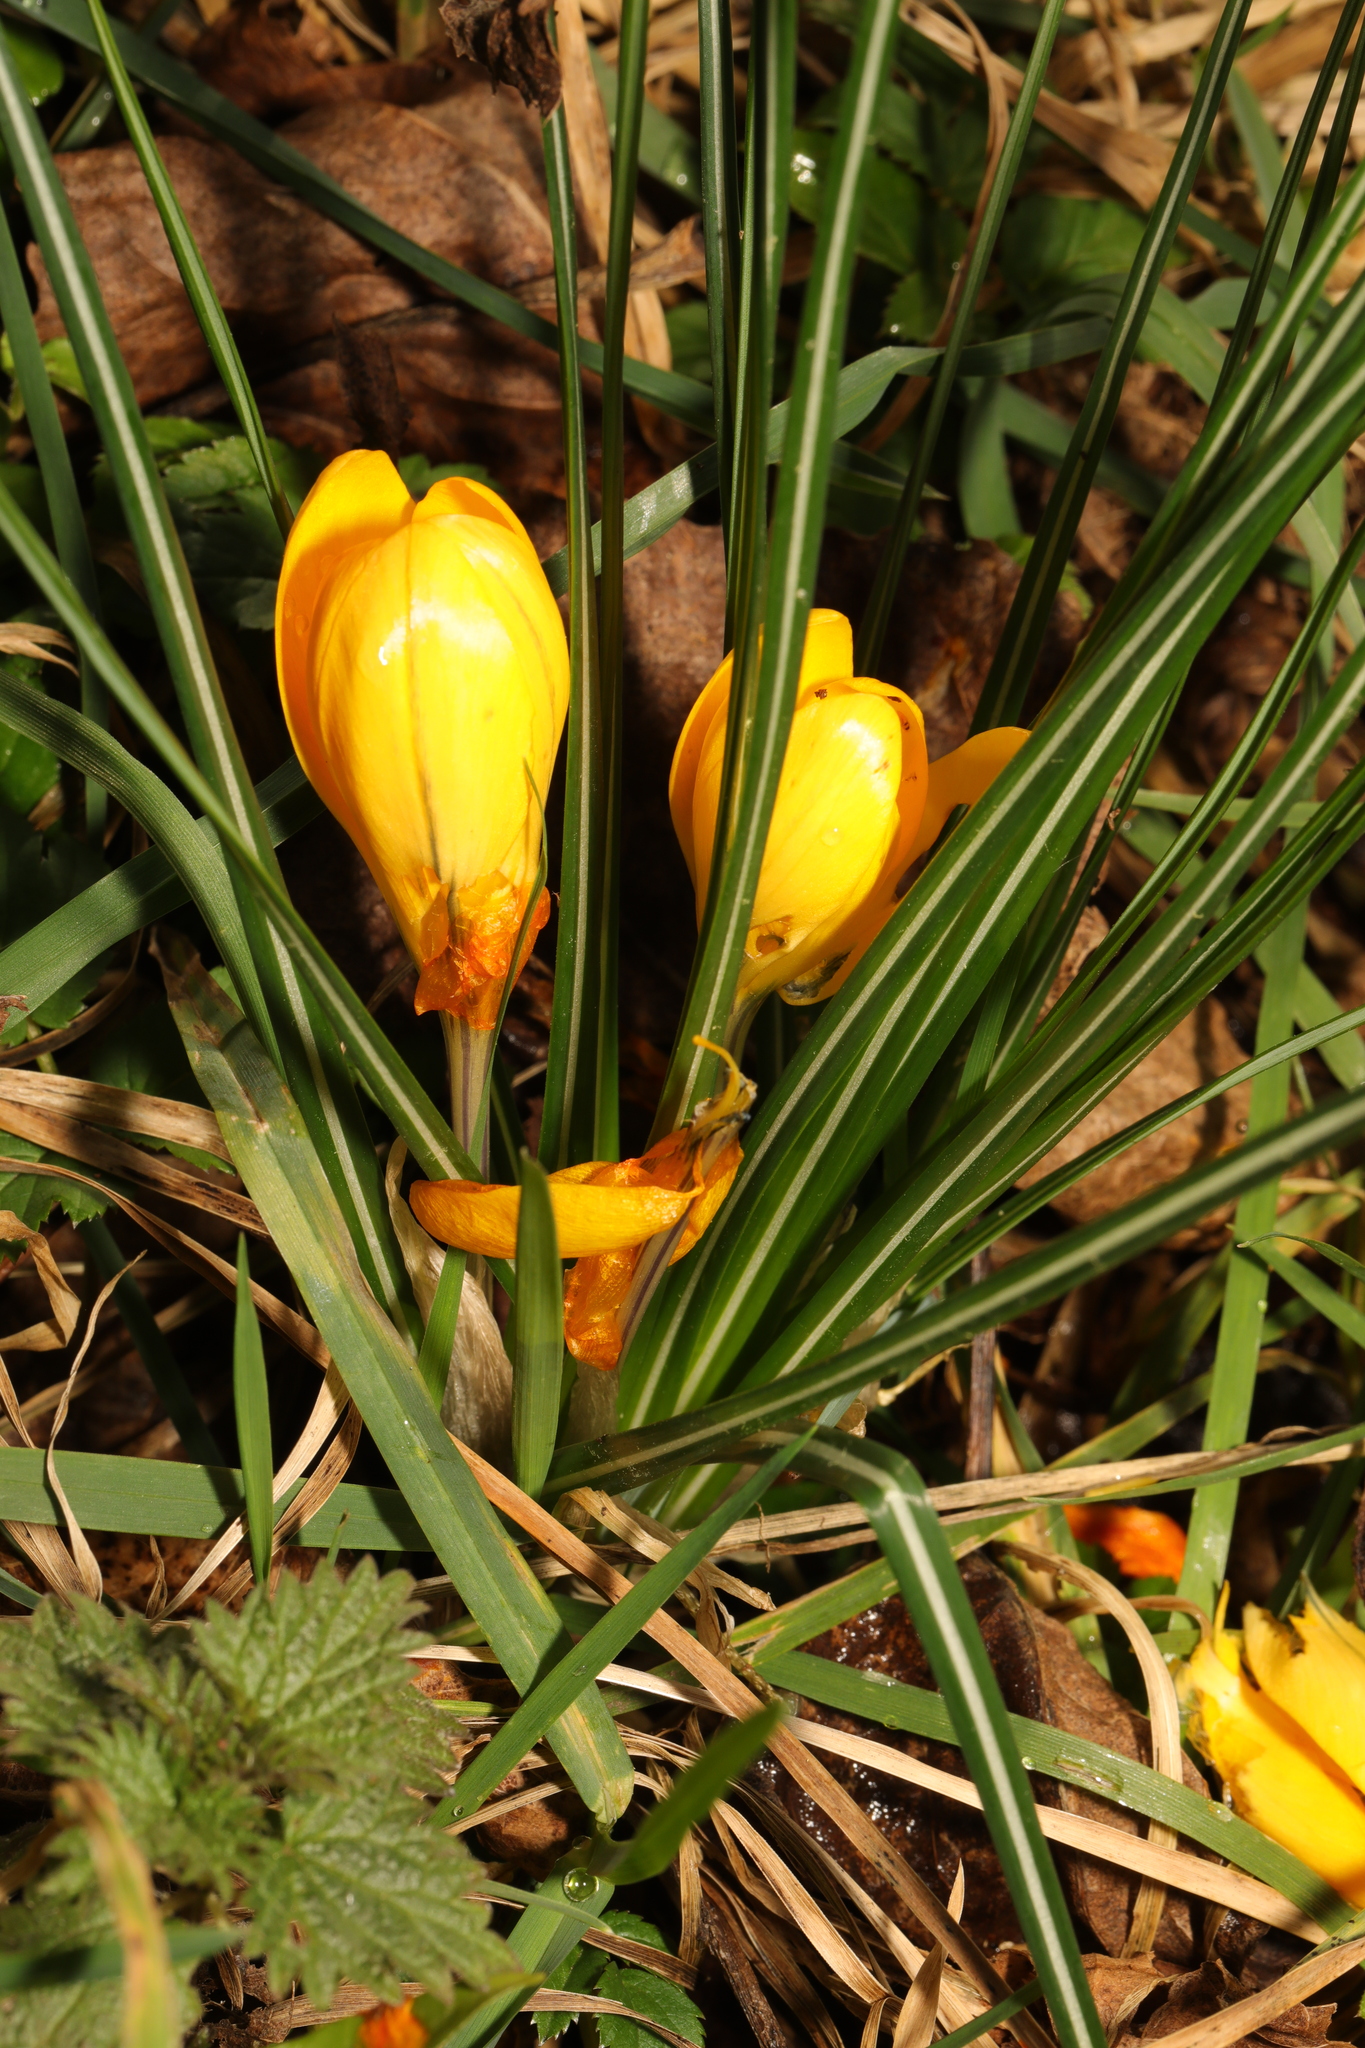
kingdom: Plantae
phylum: Tracheophyta
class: Liliopsida
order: Asparagales
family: Iridaceae
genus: Crocus
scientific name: Crocus luteus
